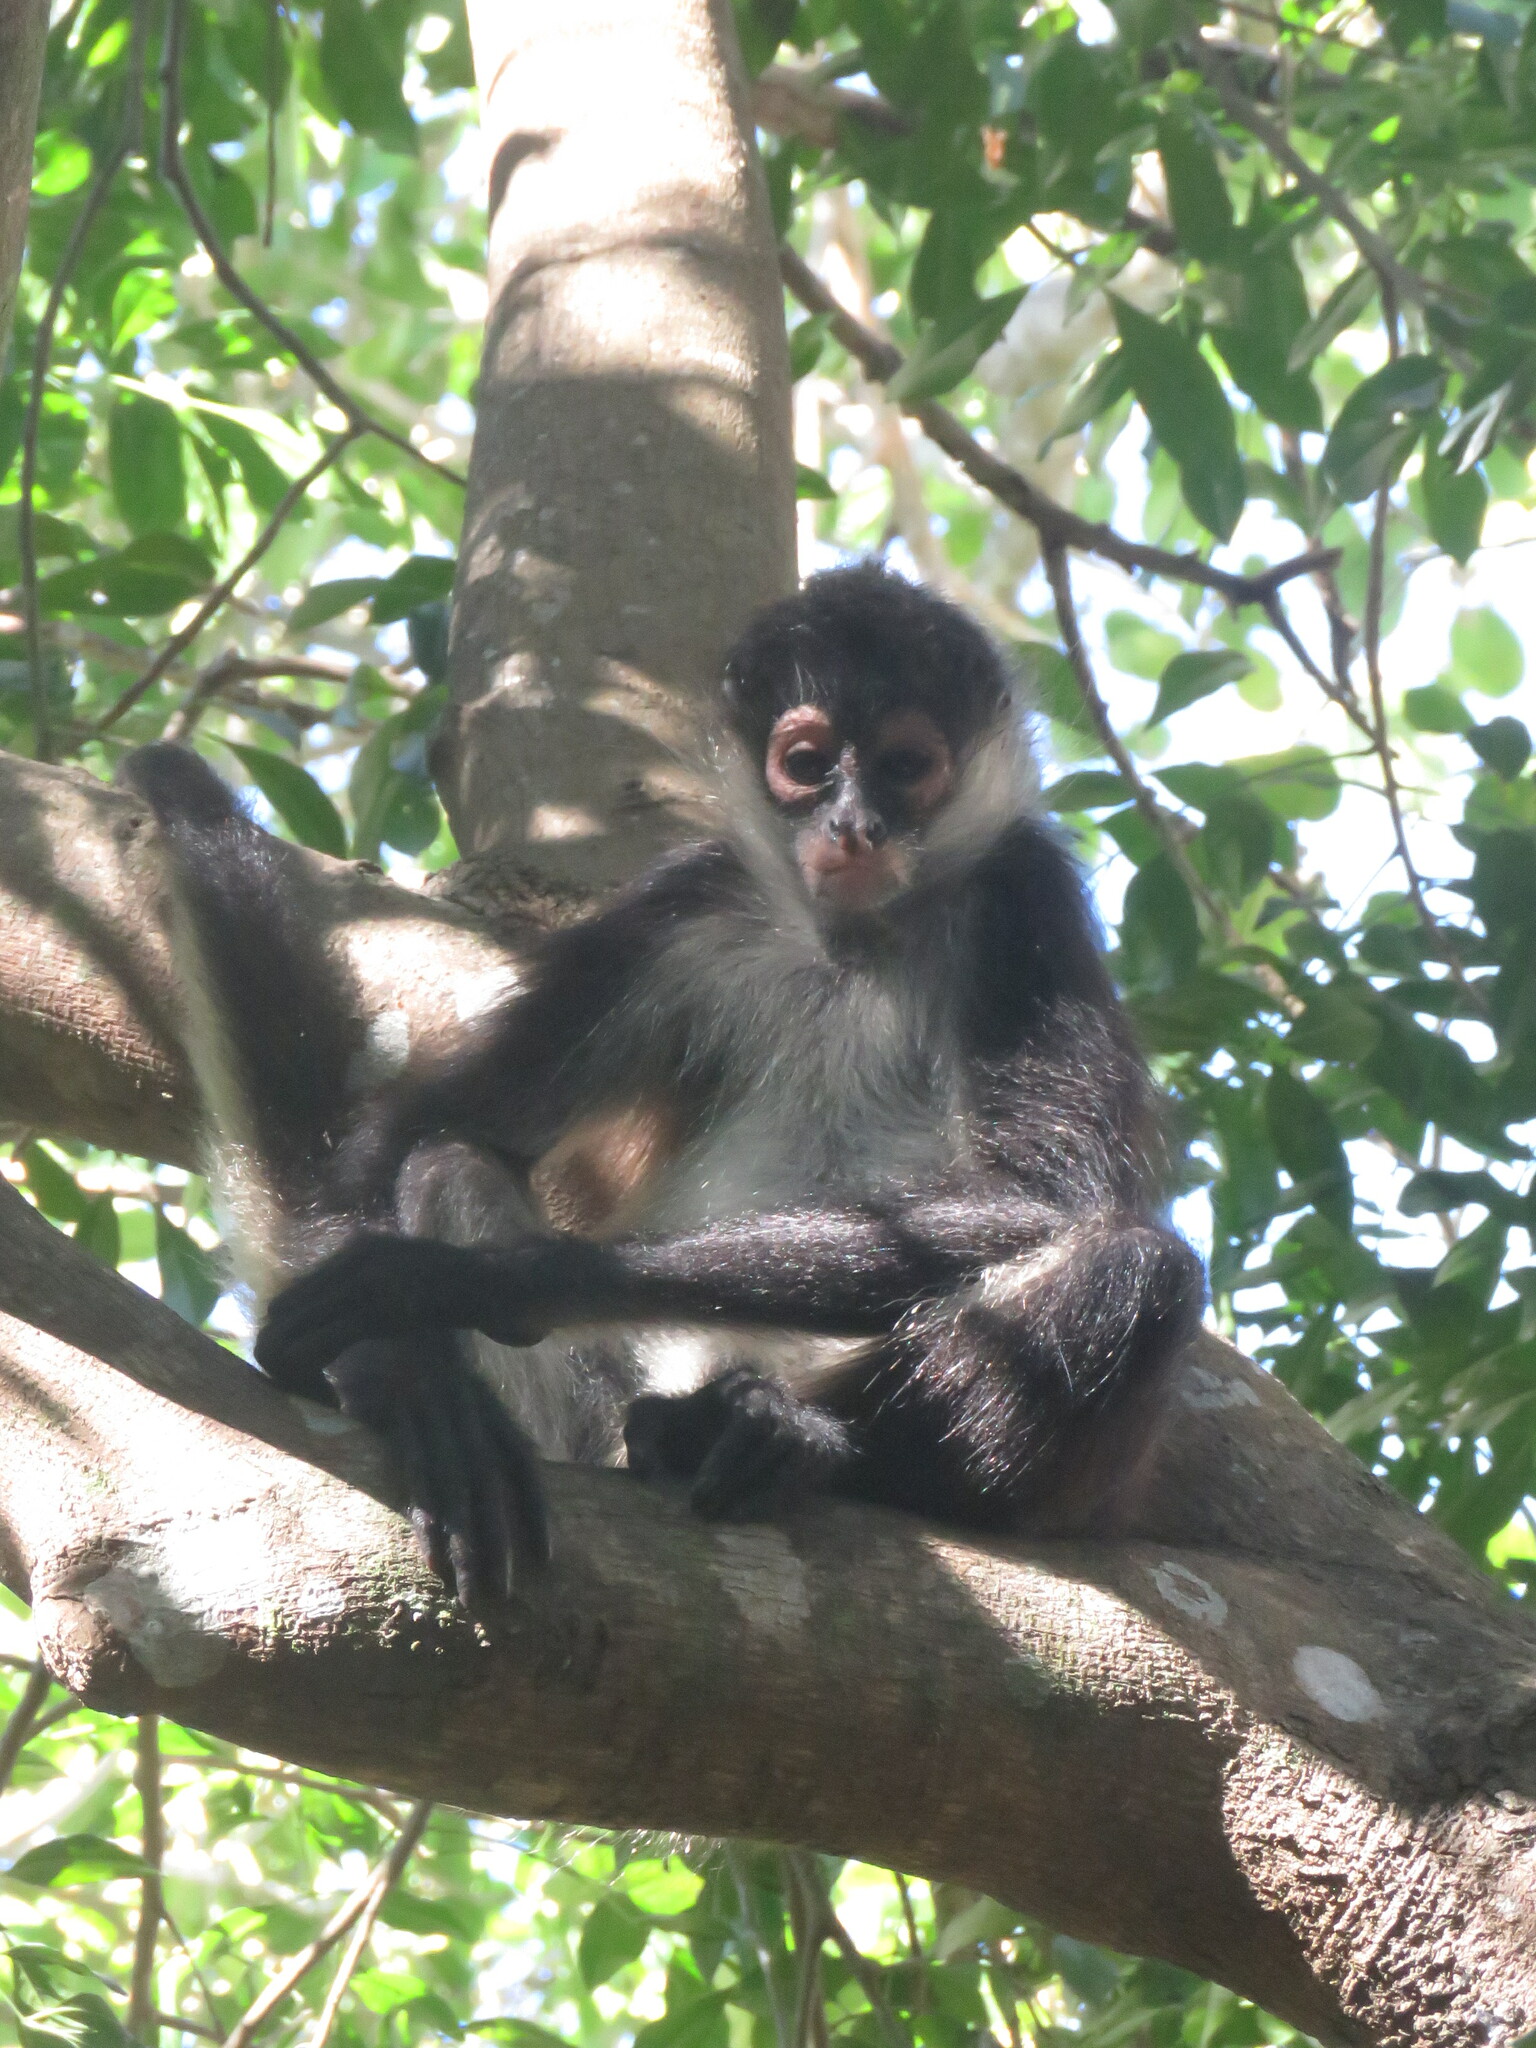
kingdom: Animalia
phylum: Chordata
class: Mammalia
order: Primates
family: Atelidae
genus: Ateles
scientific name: Ateles geoffroyi
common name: Black-handed spider monkey
